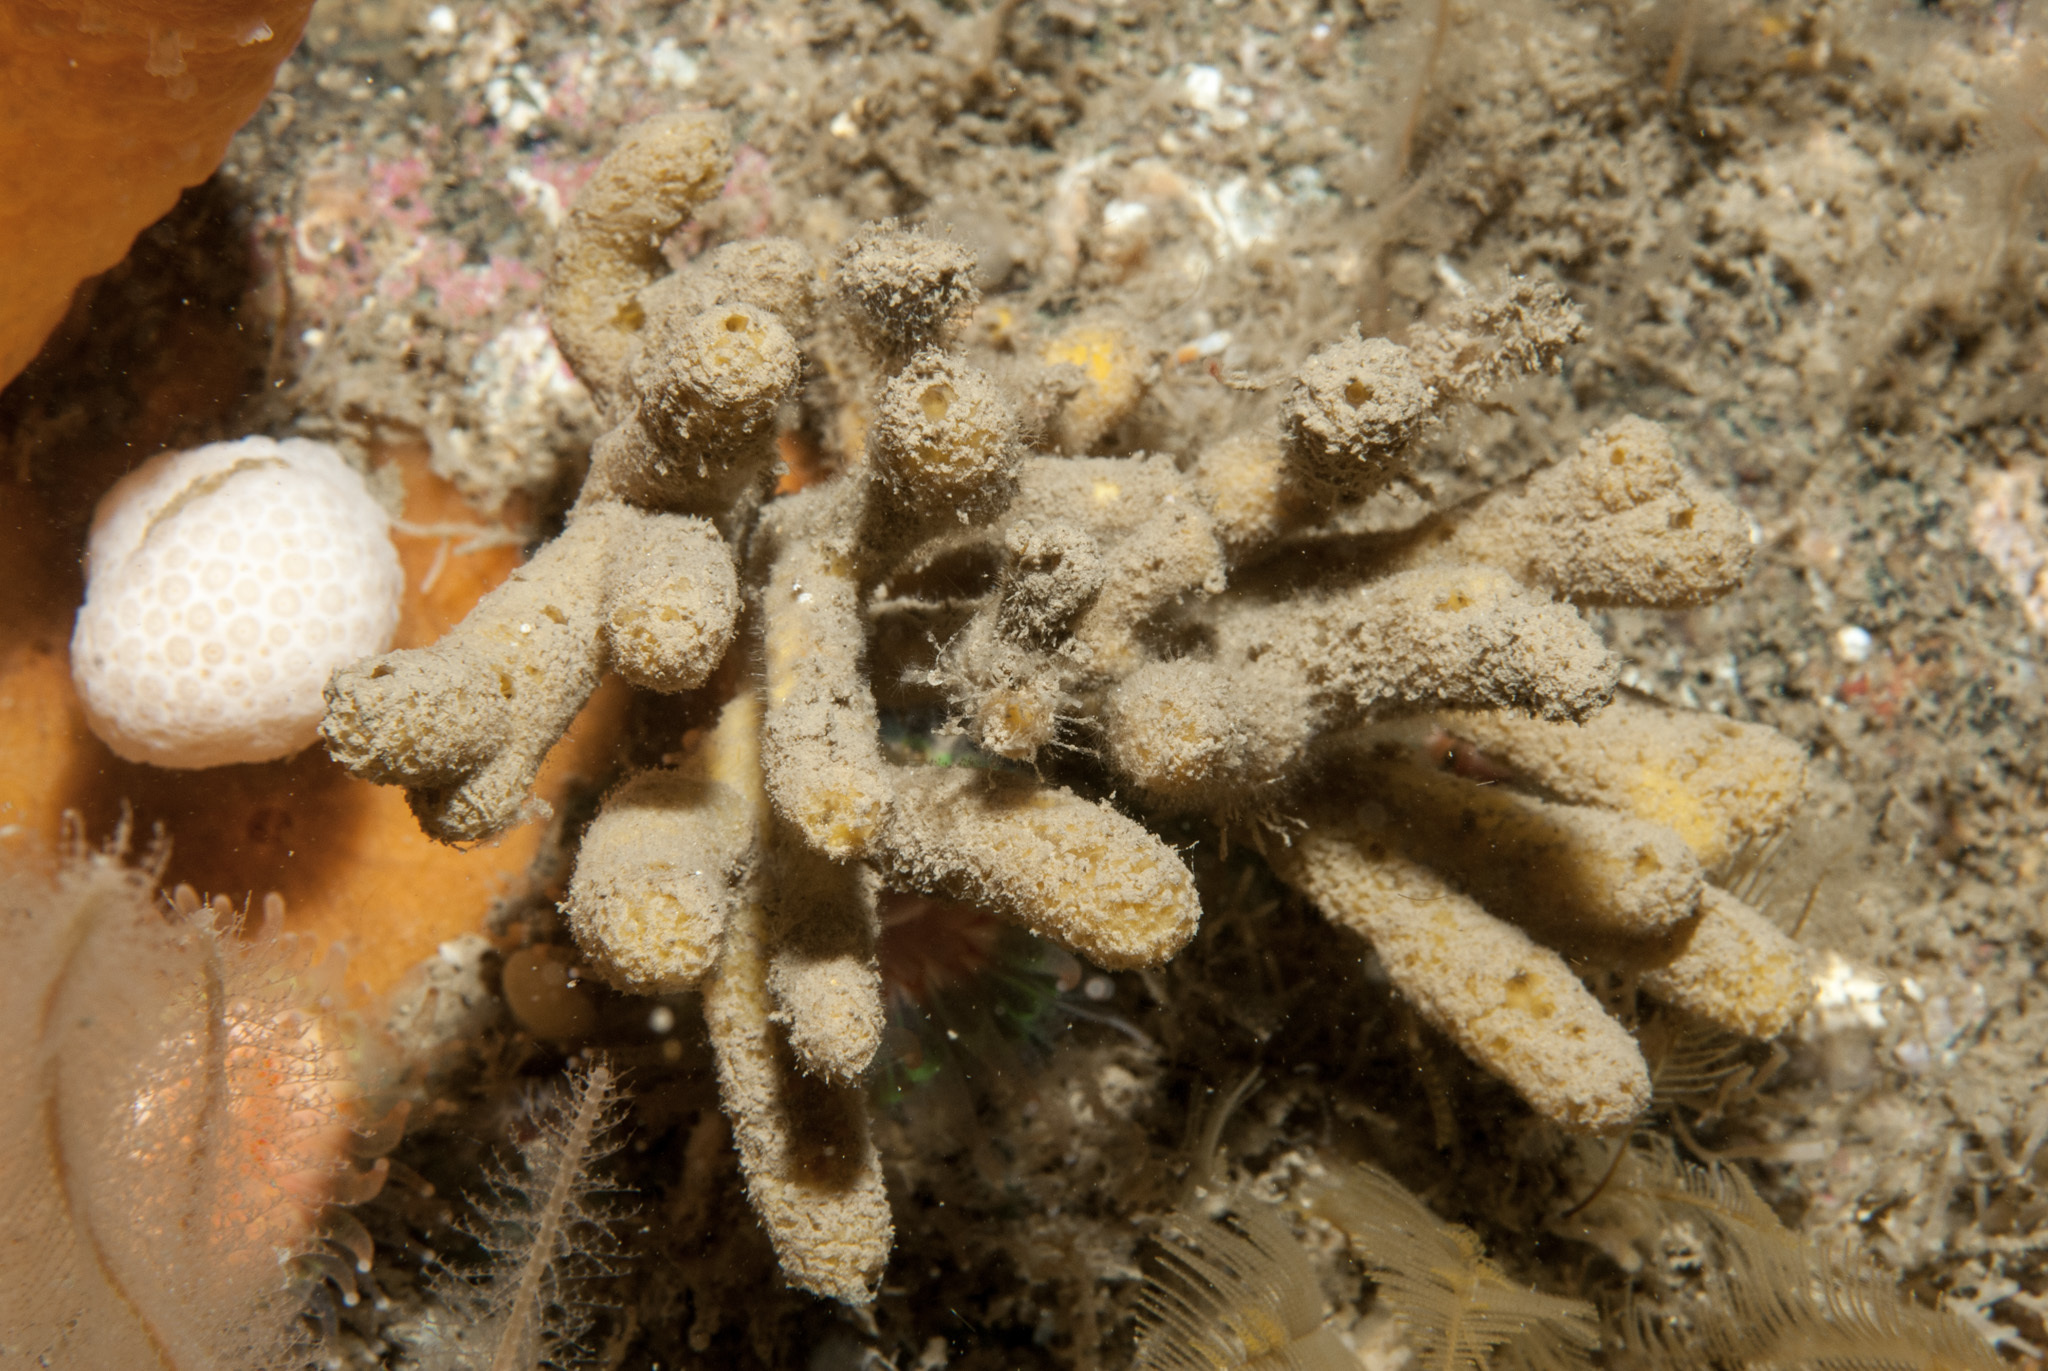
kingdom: Animalia
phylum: Porifera
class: Demospongiae
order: Axinellida
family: Stelligeridae
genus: Stelligera
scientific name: Stelligera stuposa
